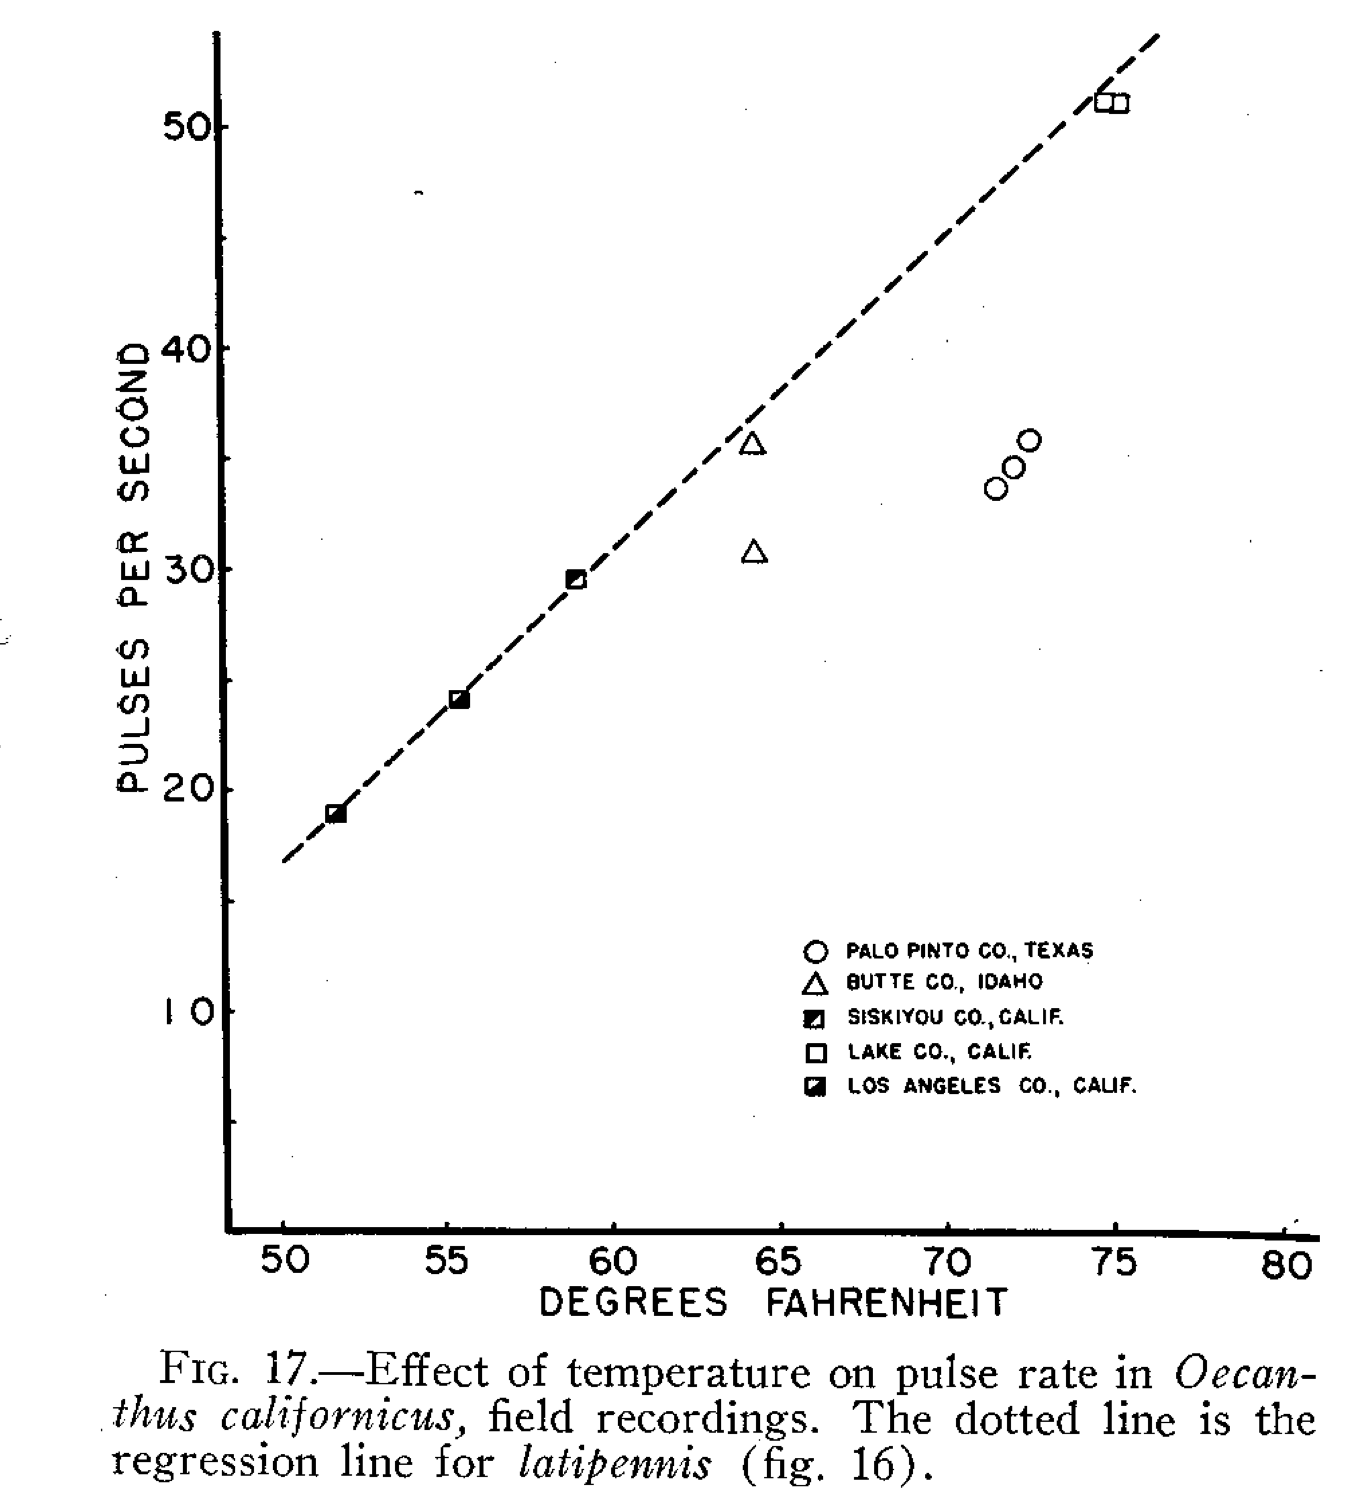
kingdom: Animalia
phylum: Arthropoda
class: Insecta
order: Orthoptera
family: Gryllidae
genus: Oecanthus
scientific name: Oecanthus californicus
